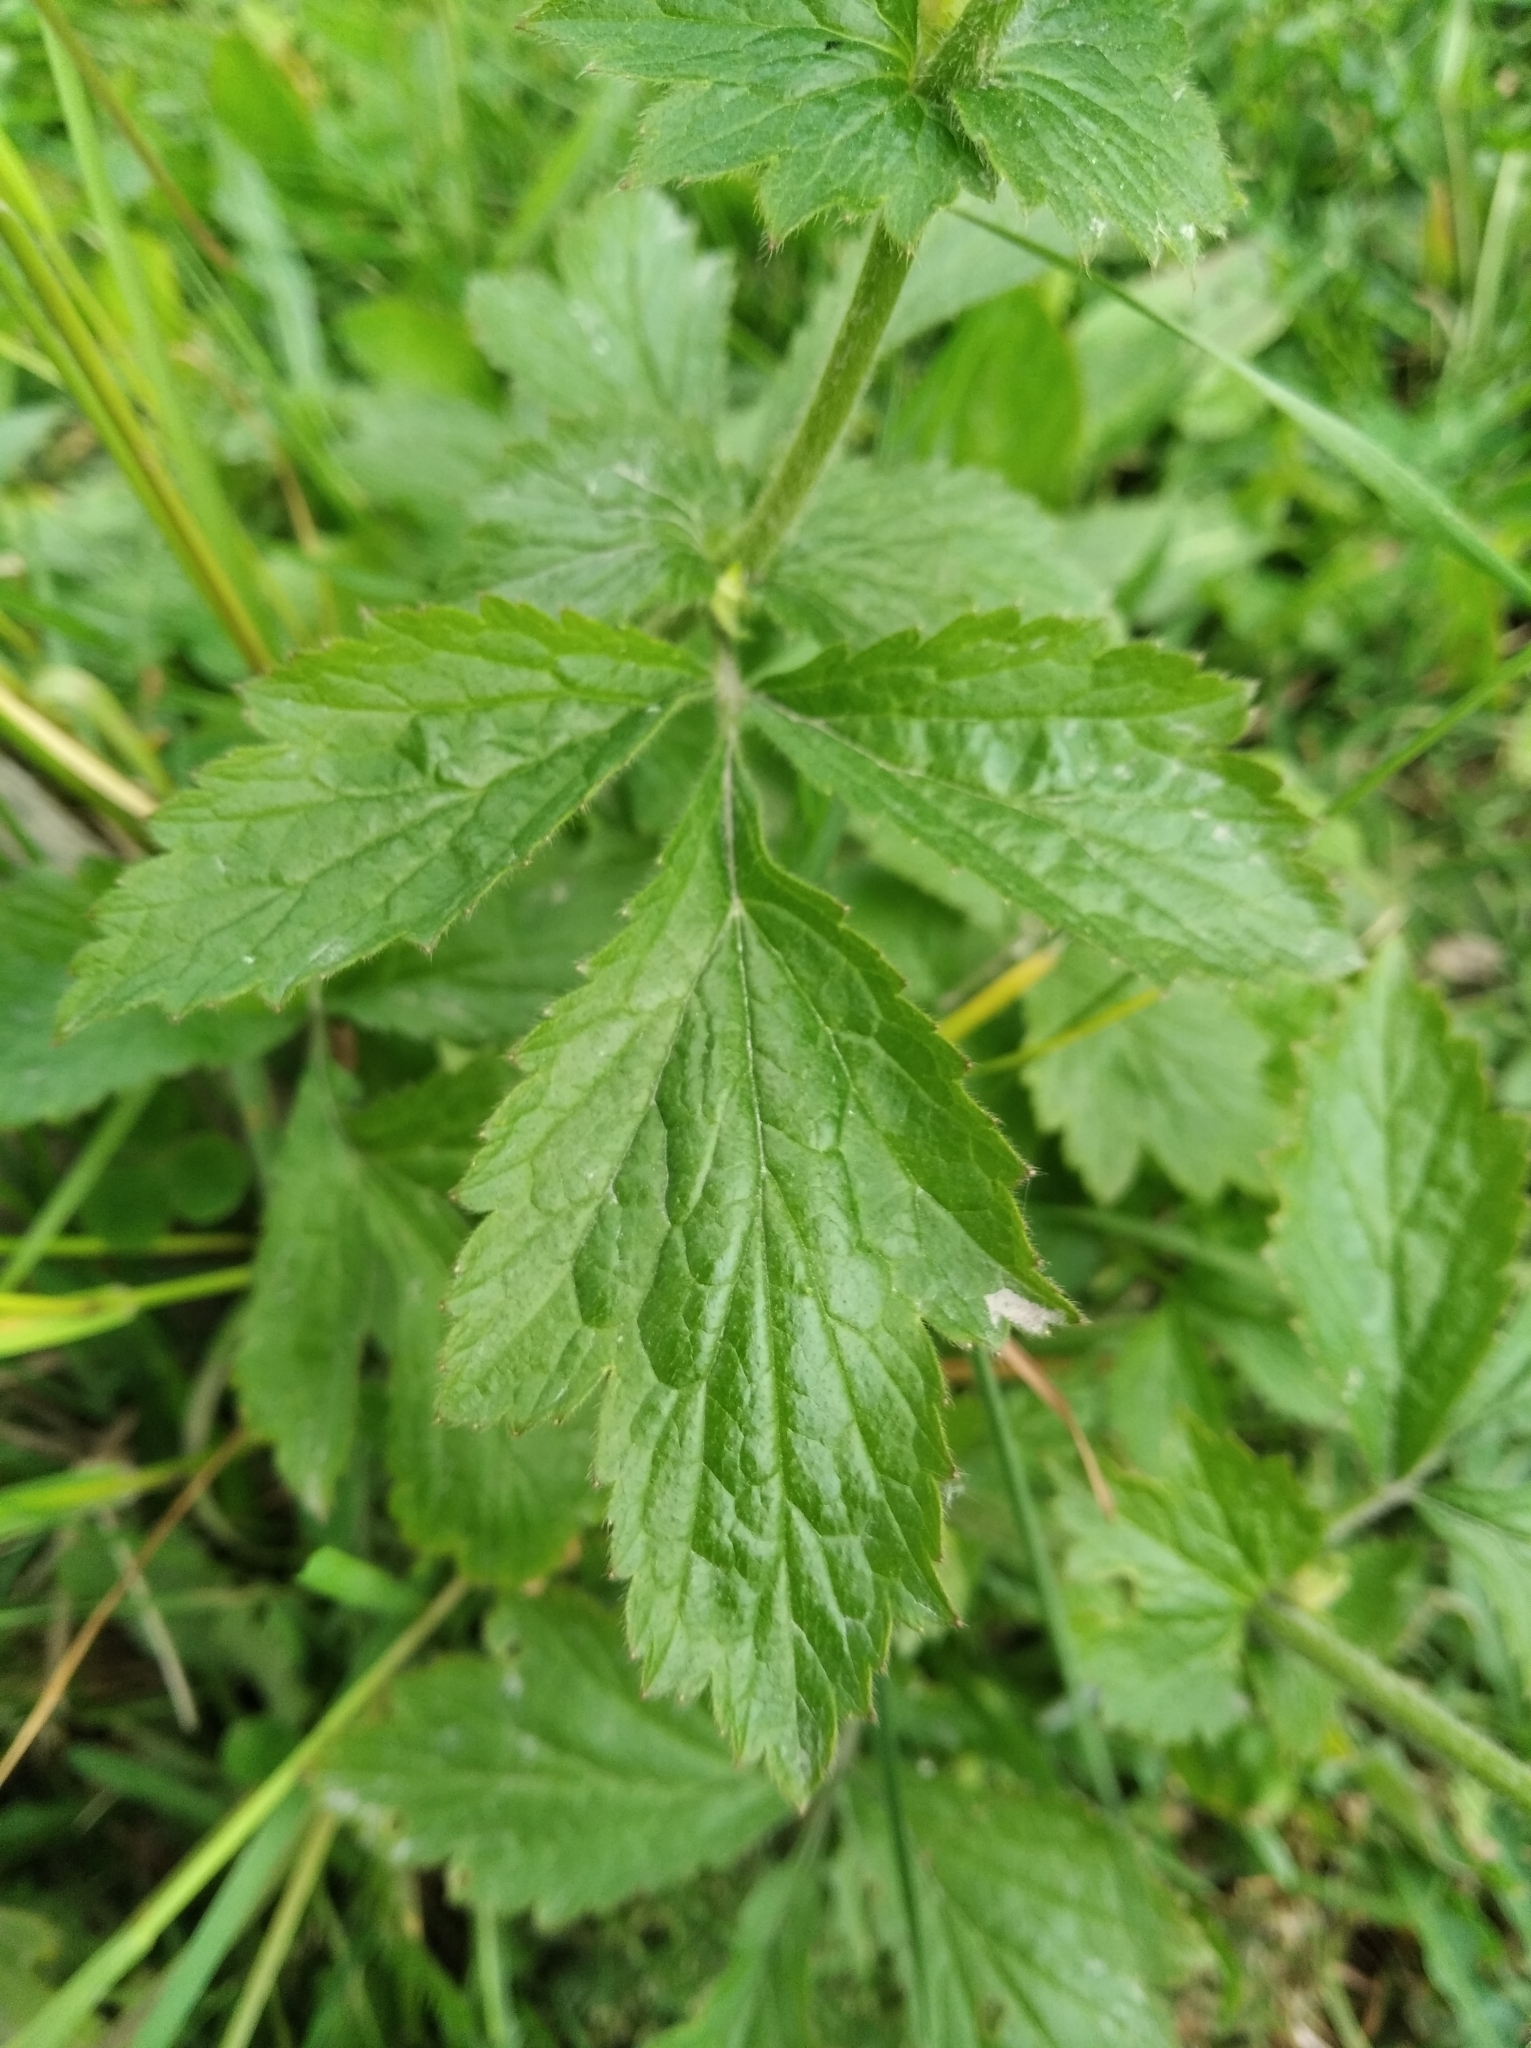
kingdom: Plantae
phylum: Tracheophyta
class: Magnoliopsida
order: Rosales
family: Rosaceae
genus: Geum
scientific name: Geum urbanum
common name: Wood avens
